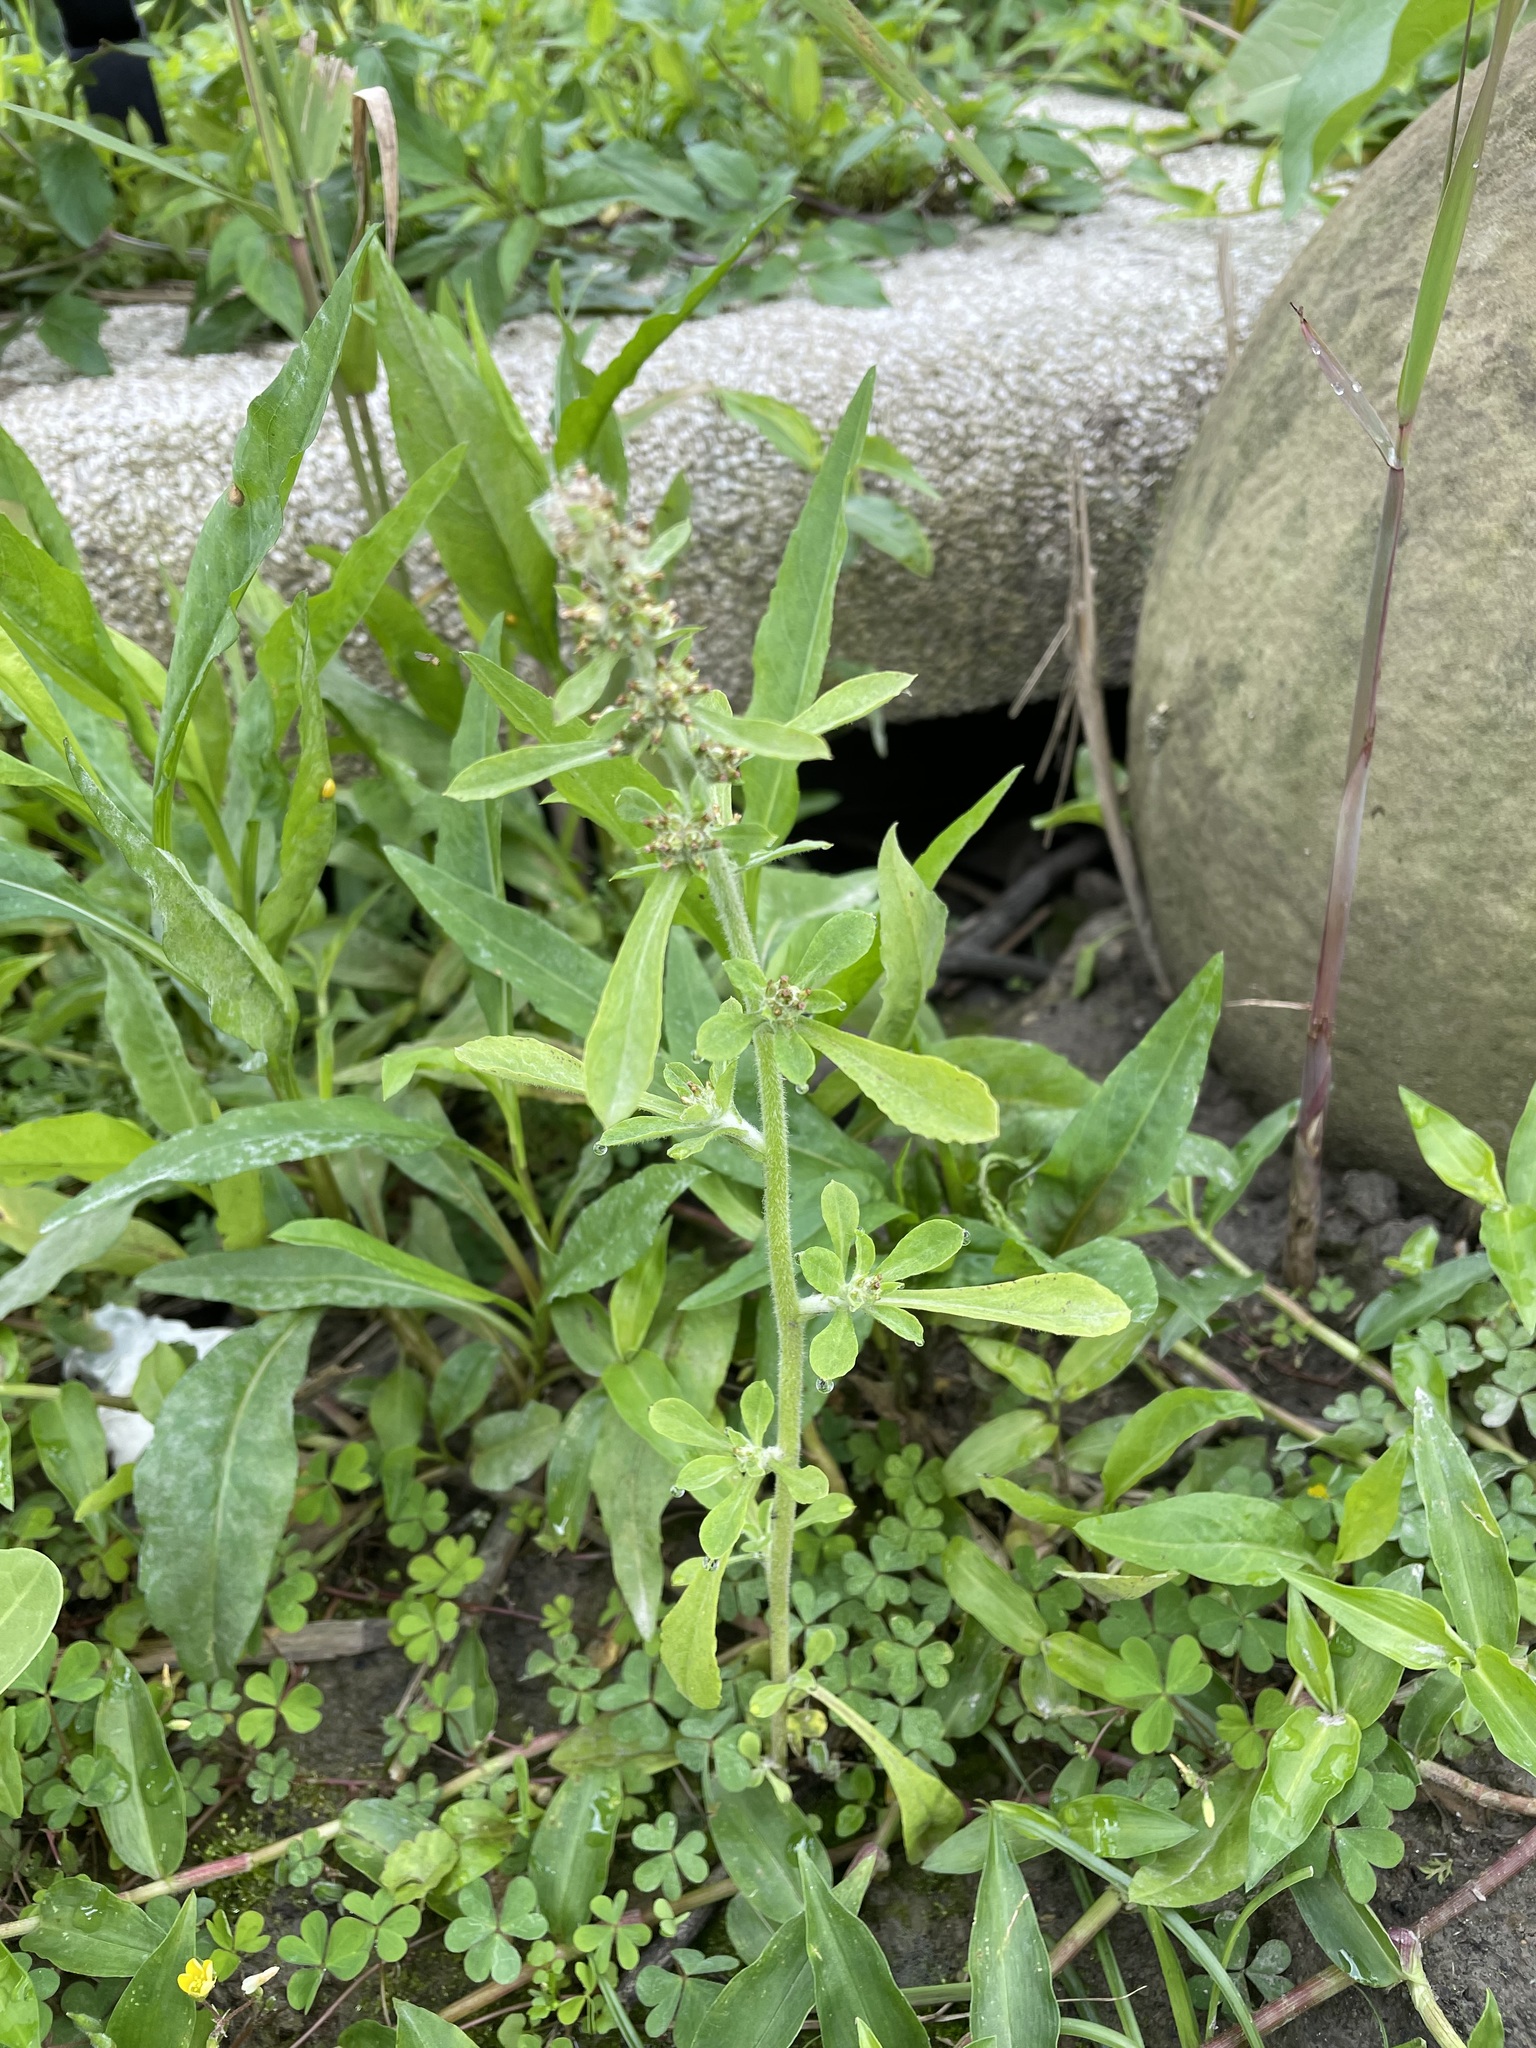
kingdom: Plantae
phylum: Tracheophyta
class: Magnoliopsida
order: Asterales
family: Asteraceae
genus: Gamochaeta
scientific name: Gamochaeta purpurea
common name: Purple cudweed
